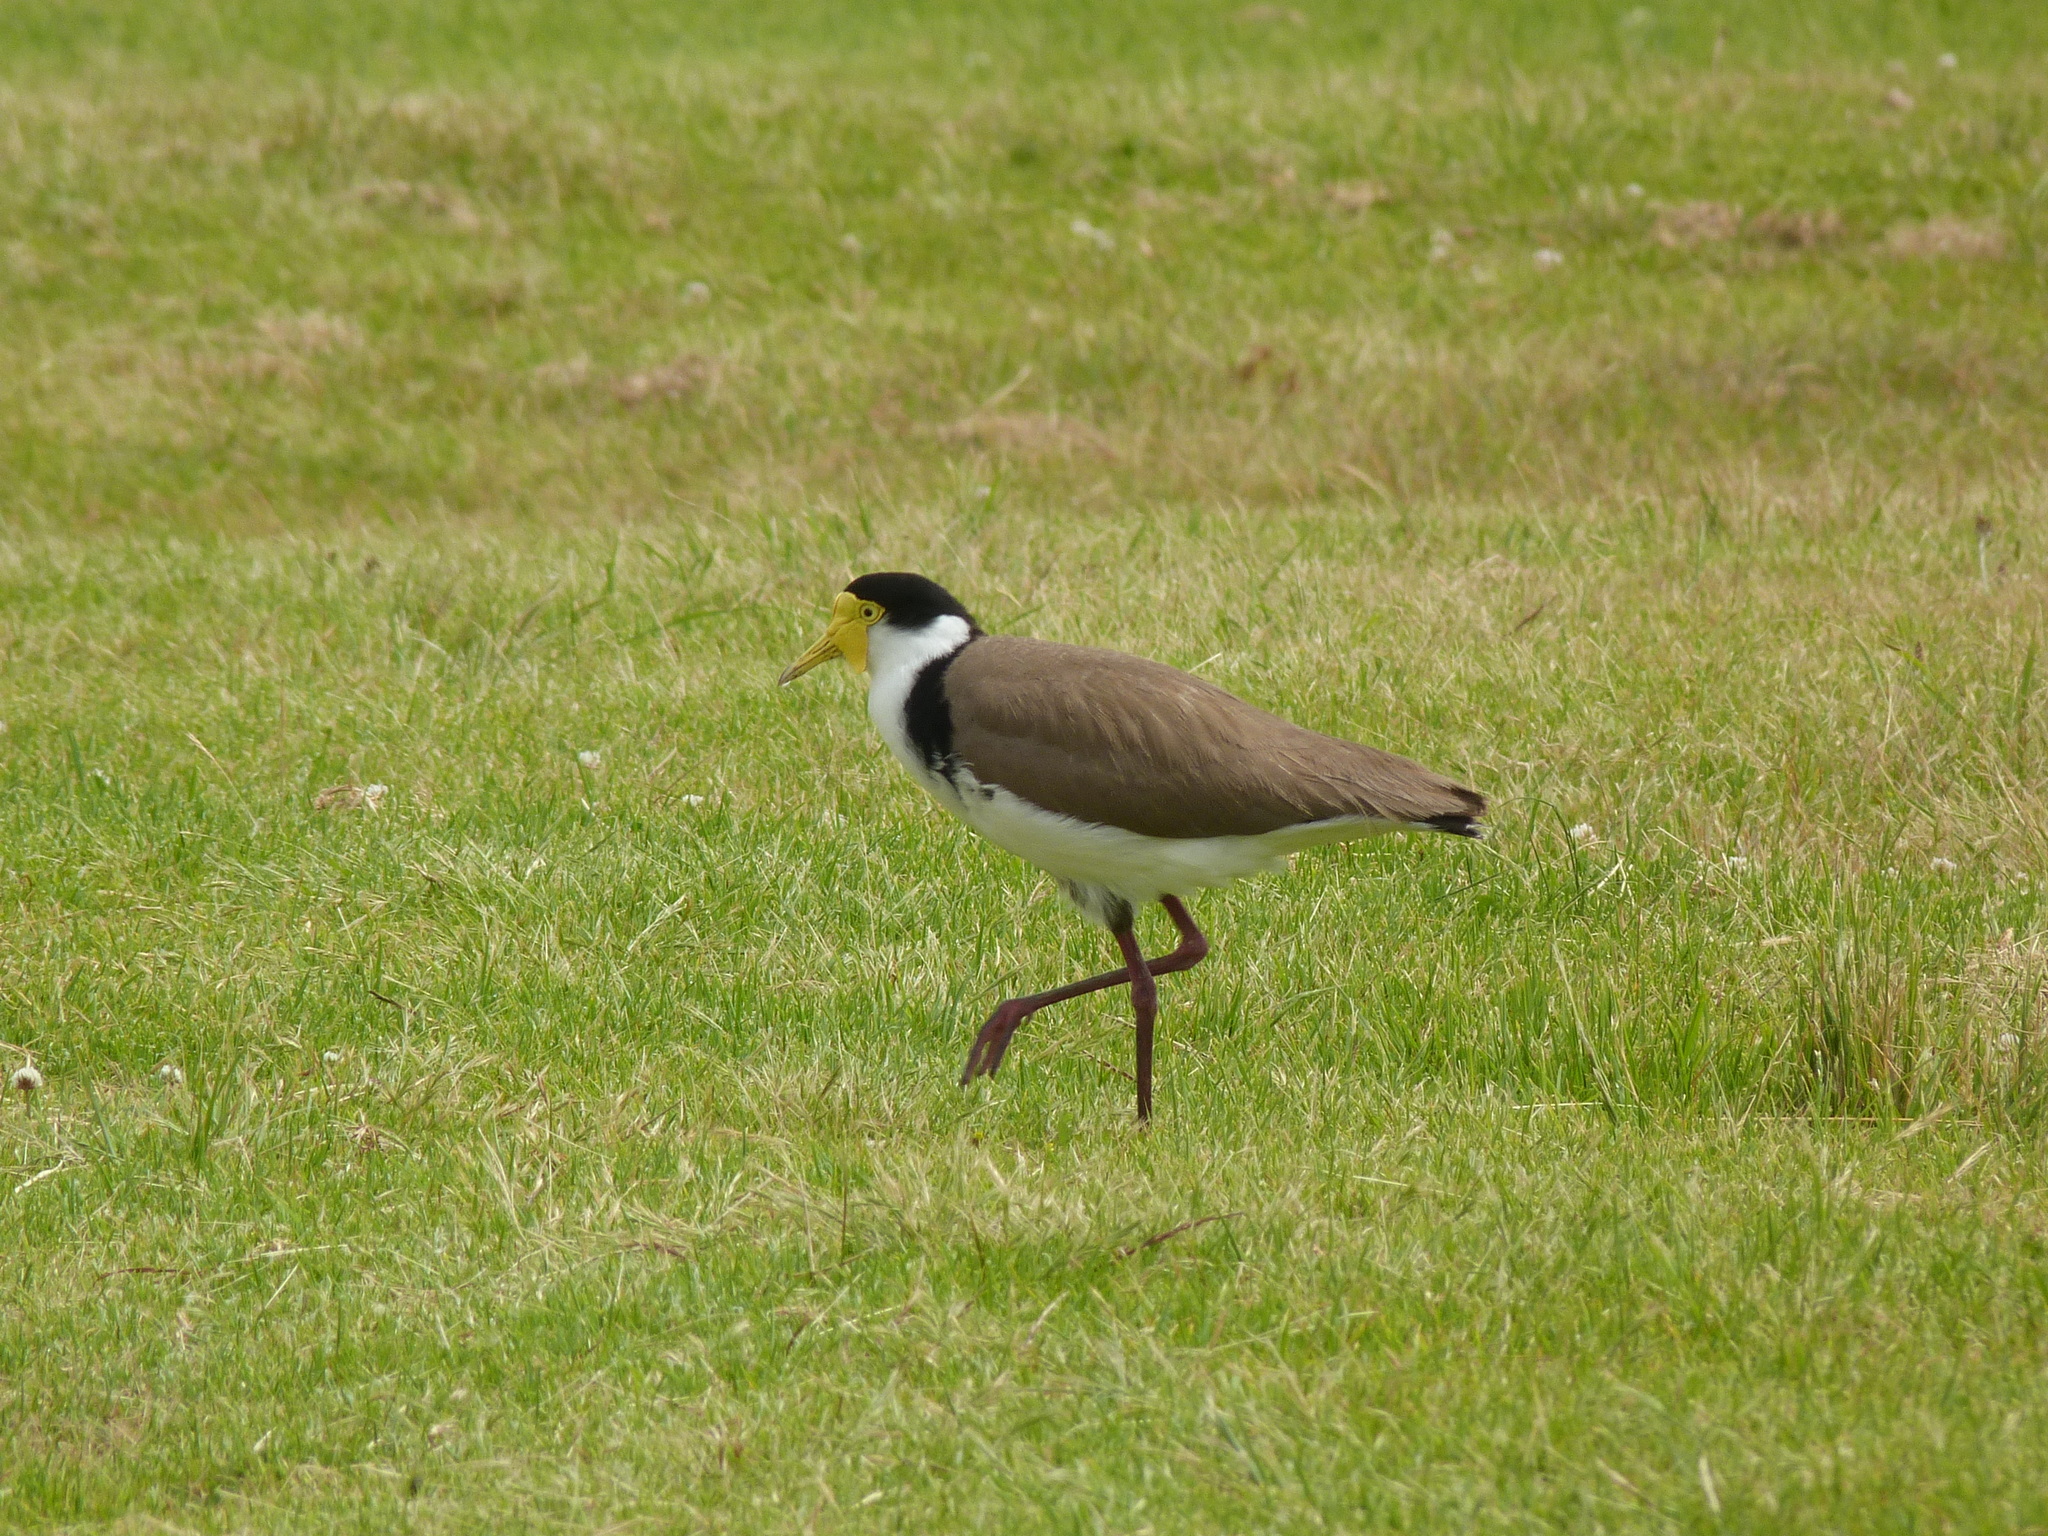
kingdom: Animalia
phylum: Chordata
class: Aves
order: Charadriiformes
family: Charadriidae
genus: Vanellus
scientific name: Vanellus miles
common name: Masked lapwing
